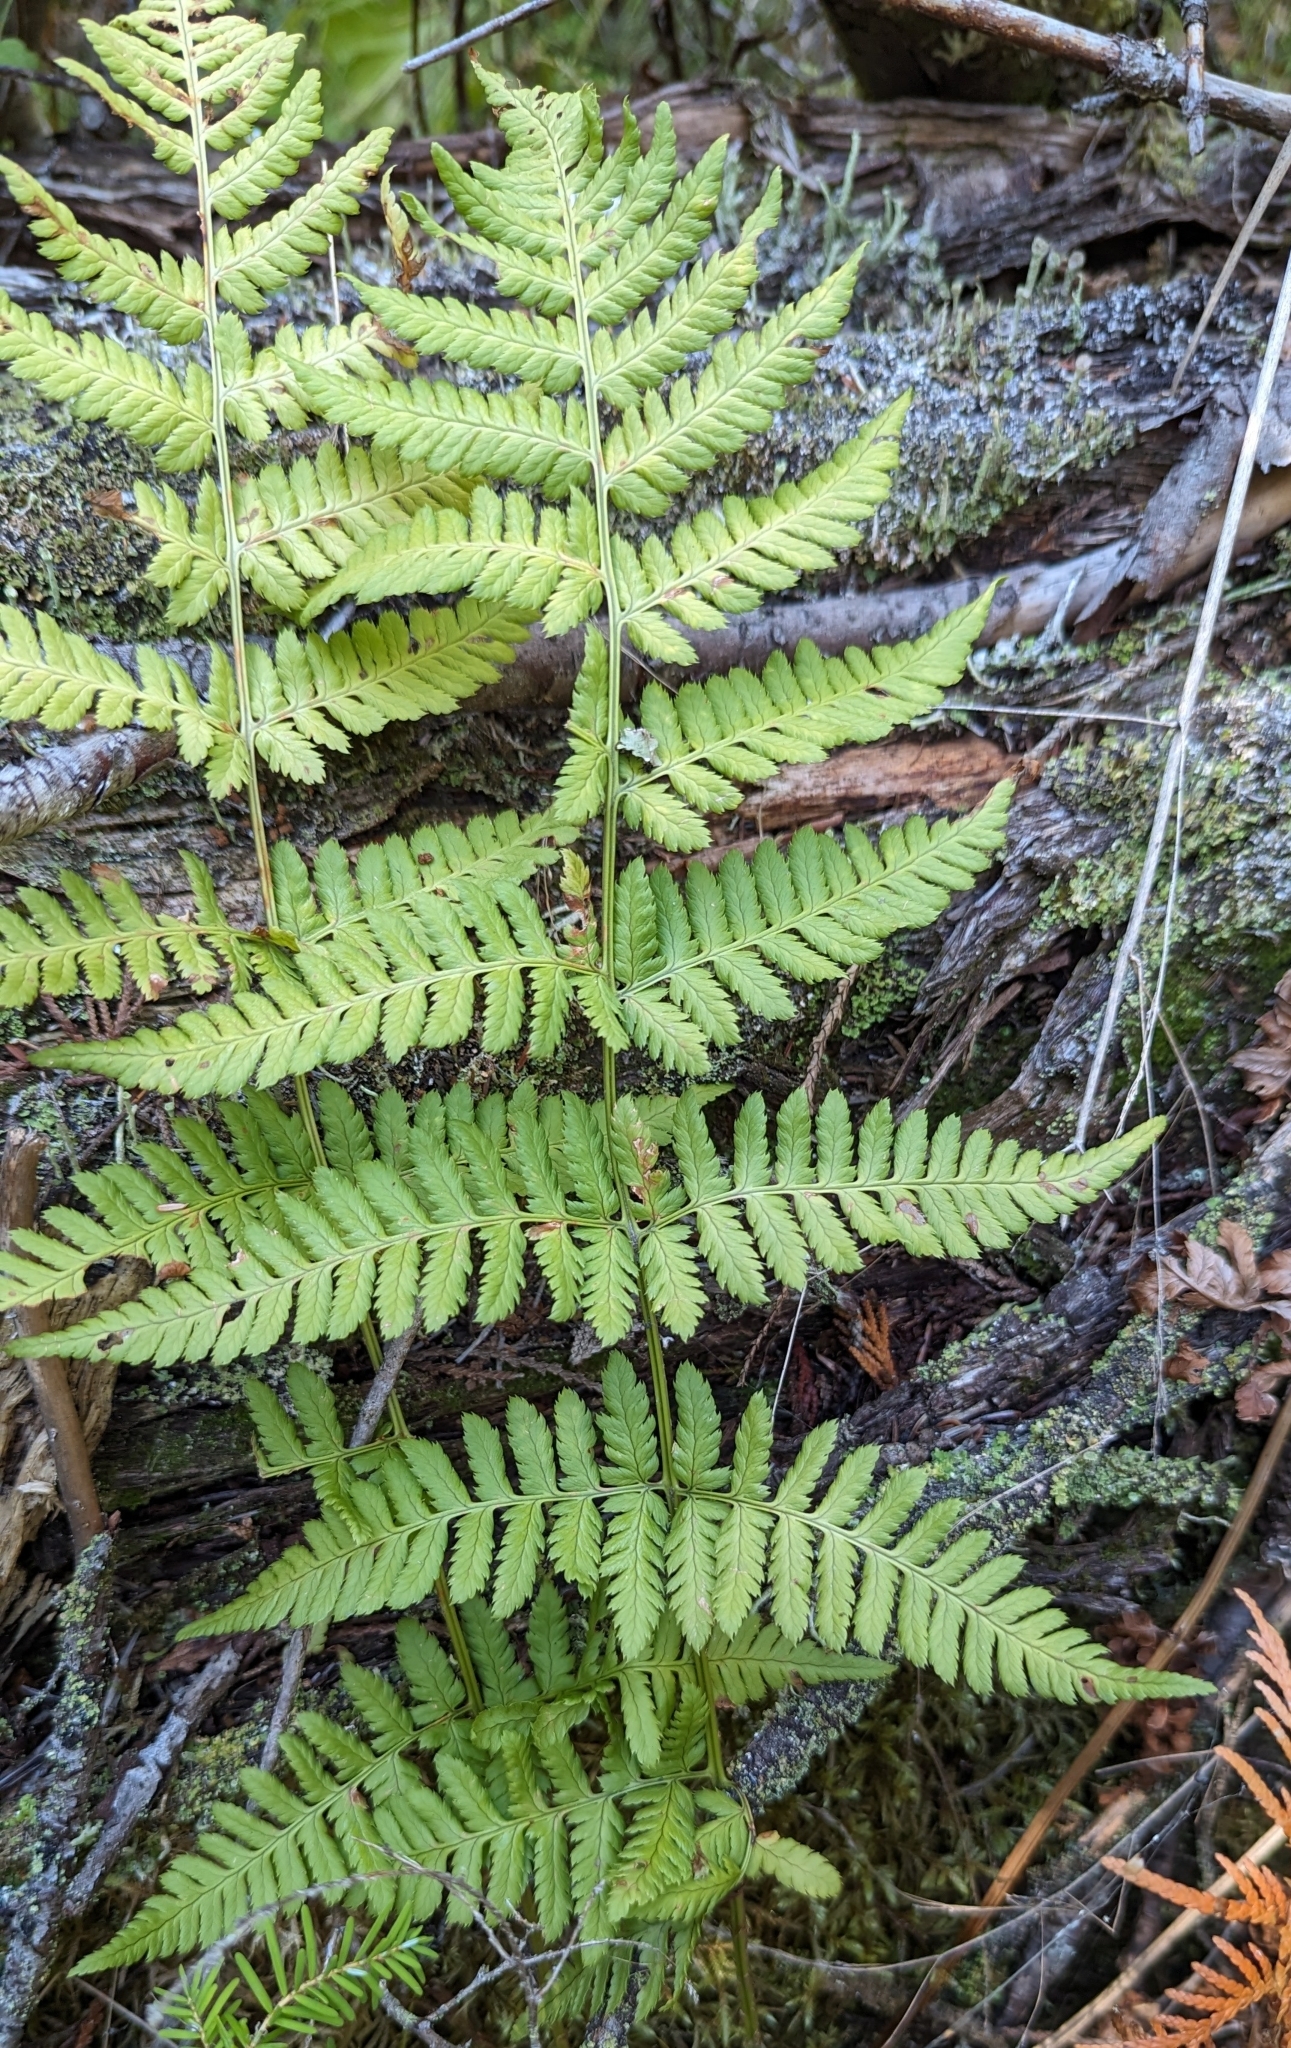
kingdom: Plantae
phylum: Tracheophyta
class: Polypodiopsida
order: Polypodiales
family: Dryopteridaceae
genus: Dryopteris
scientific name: Dryopteris carthusiana
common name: Narrow buckler-fern
